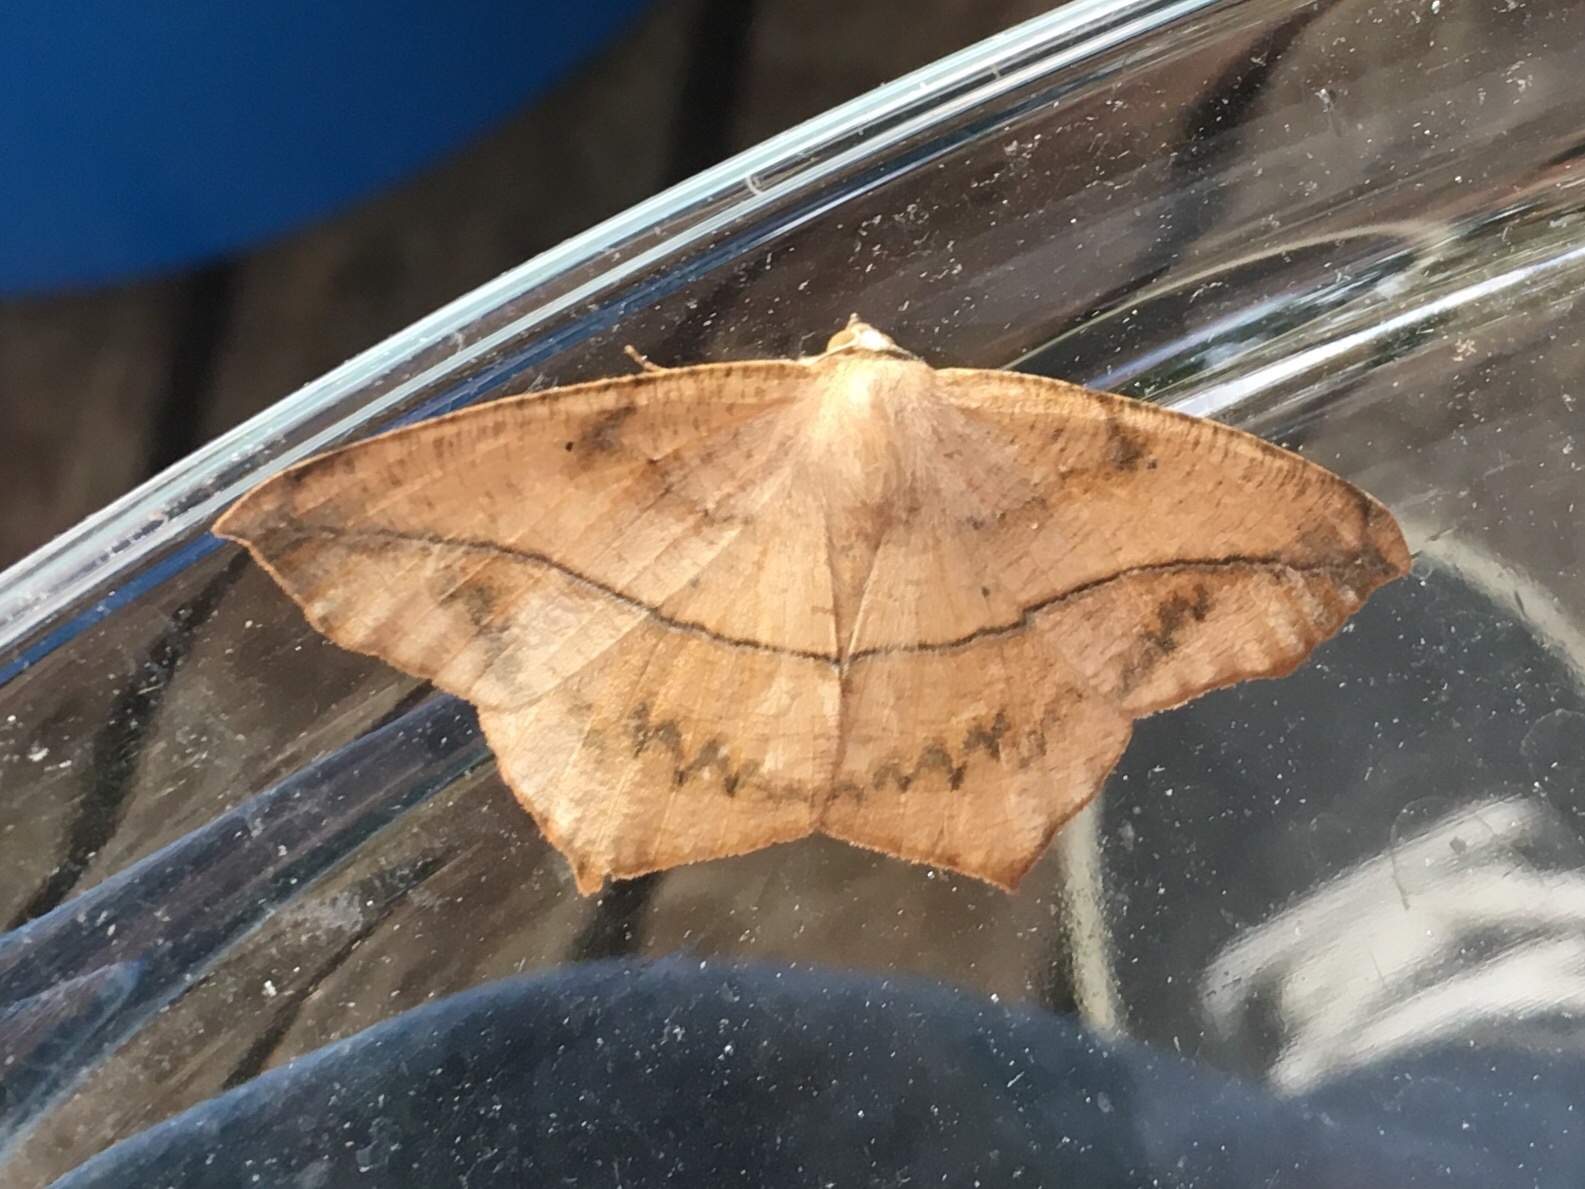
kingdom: Animalia
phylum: Arthropoda
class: Insecta
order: Lepidoptera
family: Geometridae
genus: Prochoerodes
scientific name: Prochoerodes lineola
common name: Large maple spanworm
